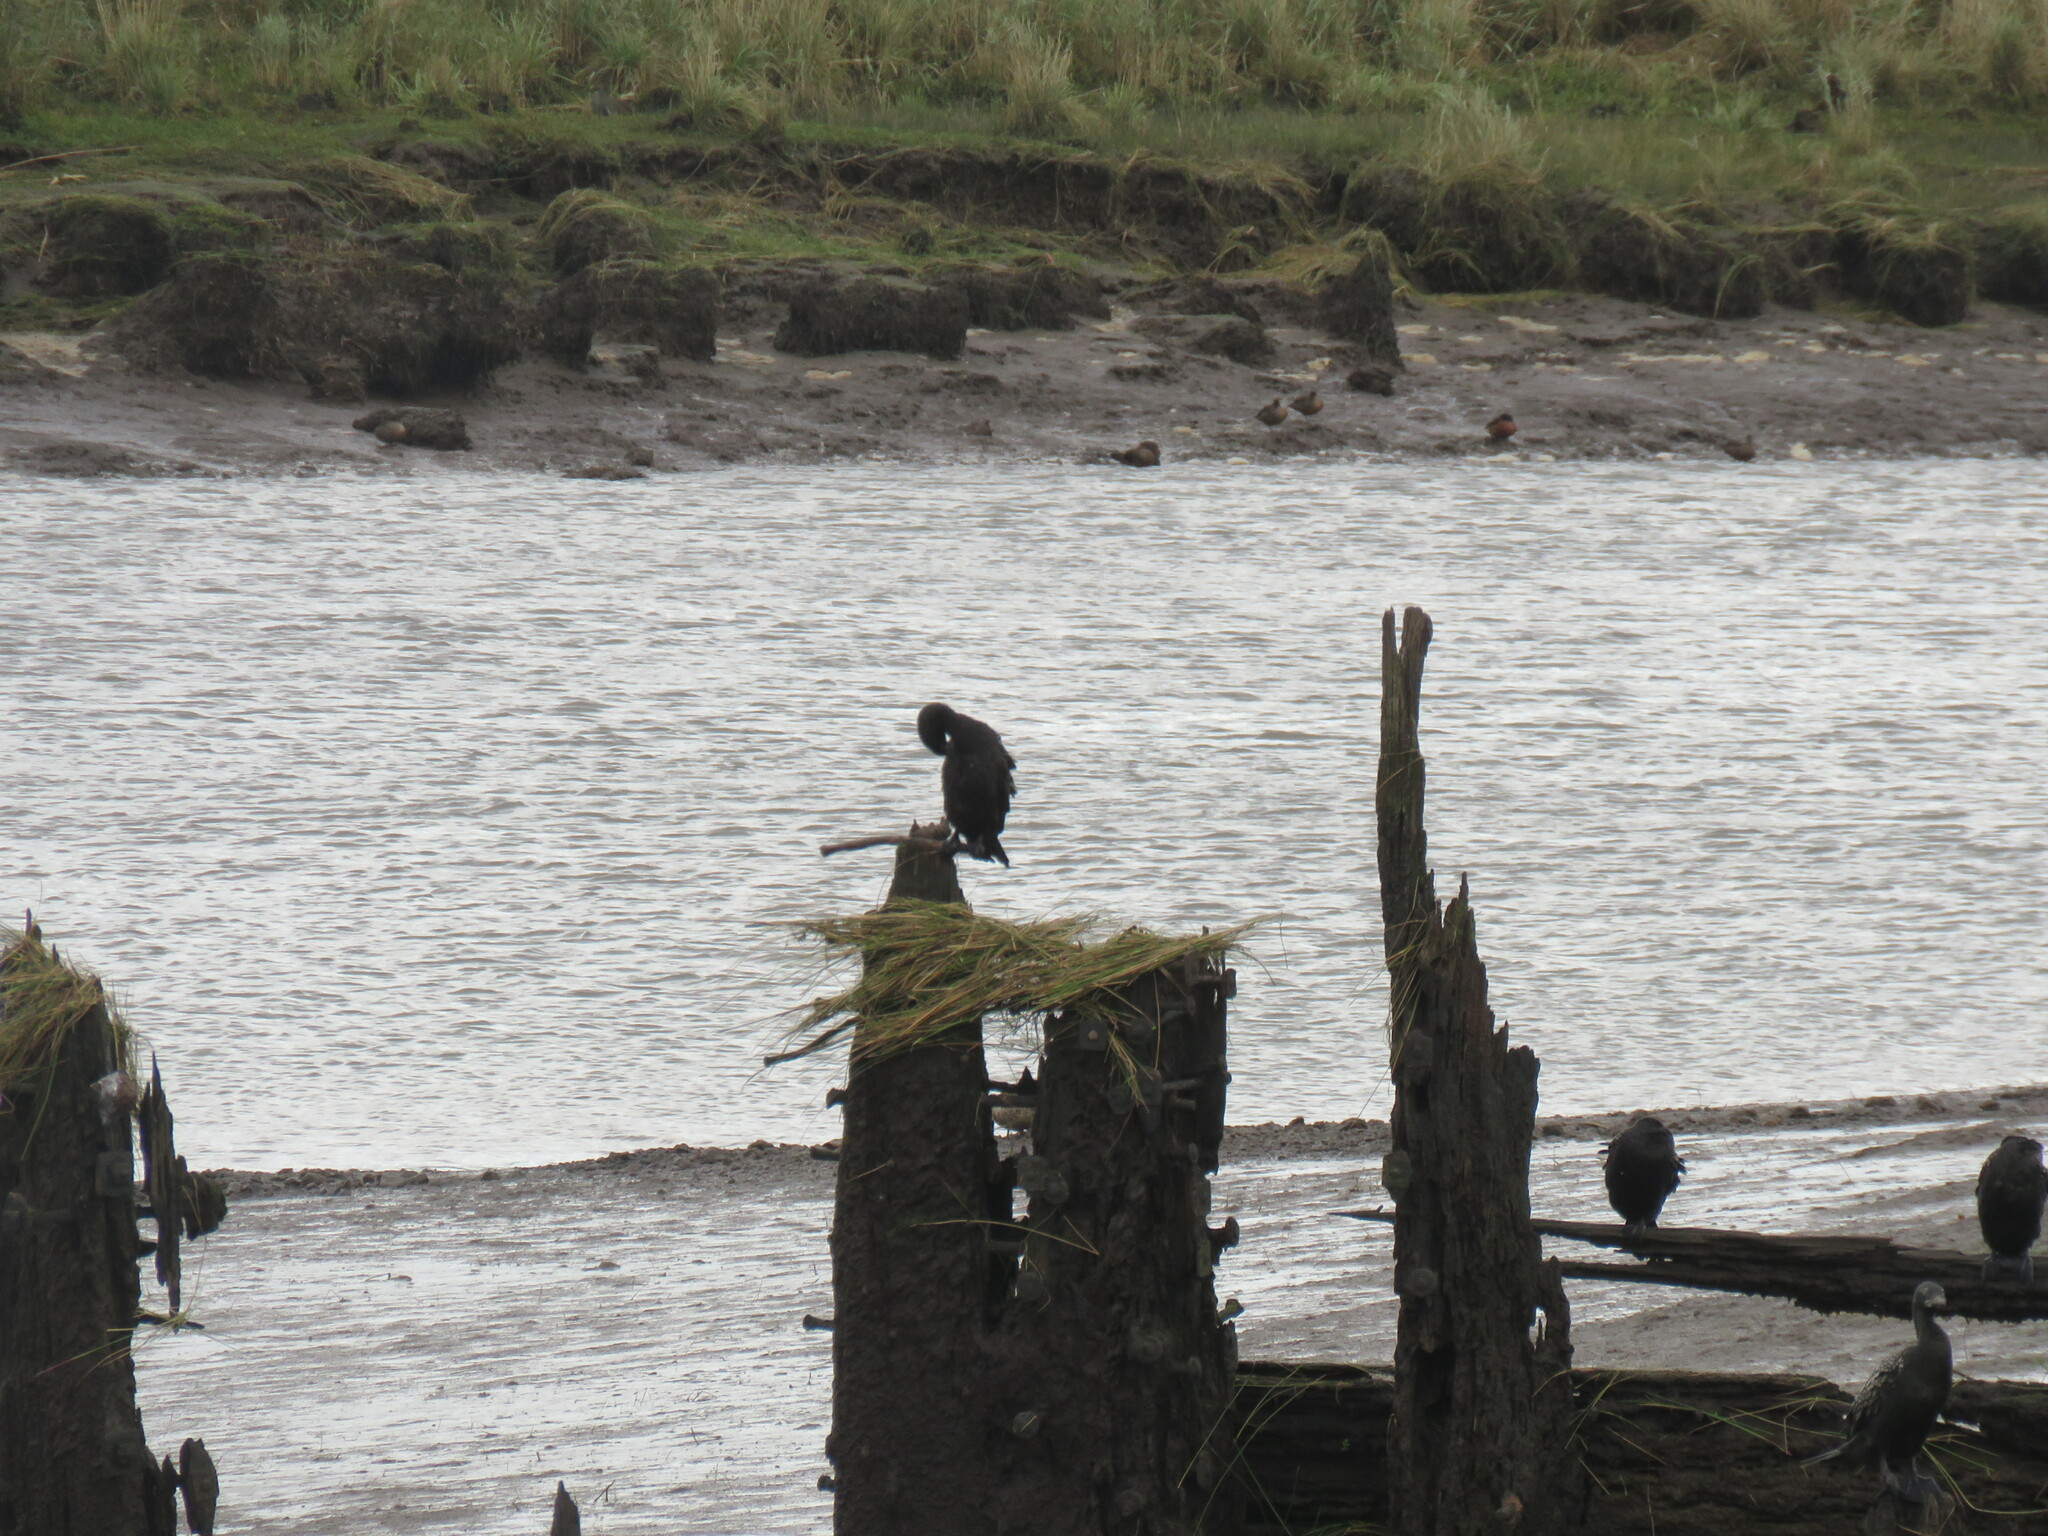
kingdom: Animalia
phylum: Chordata
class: Aves
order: Suliformes
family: Phalacrocoracidae
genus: Phalacrocorax
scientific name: Phalacrocorax sulcirostris
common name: Little black cormorant
